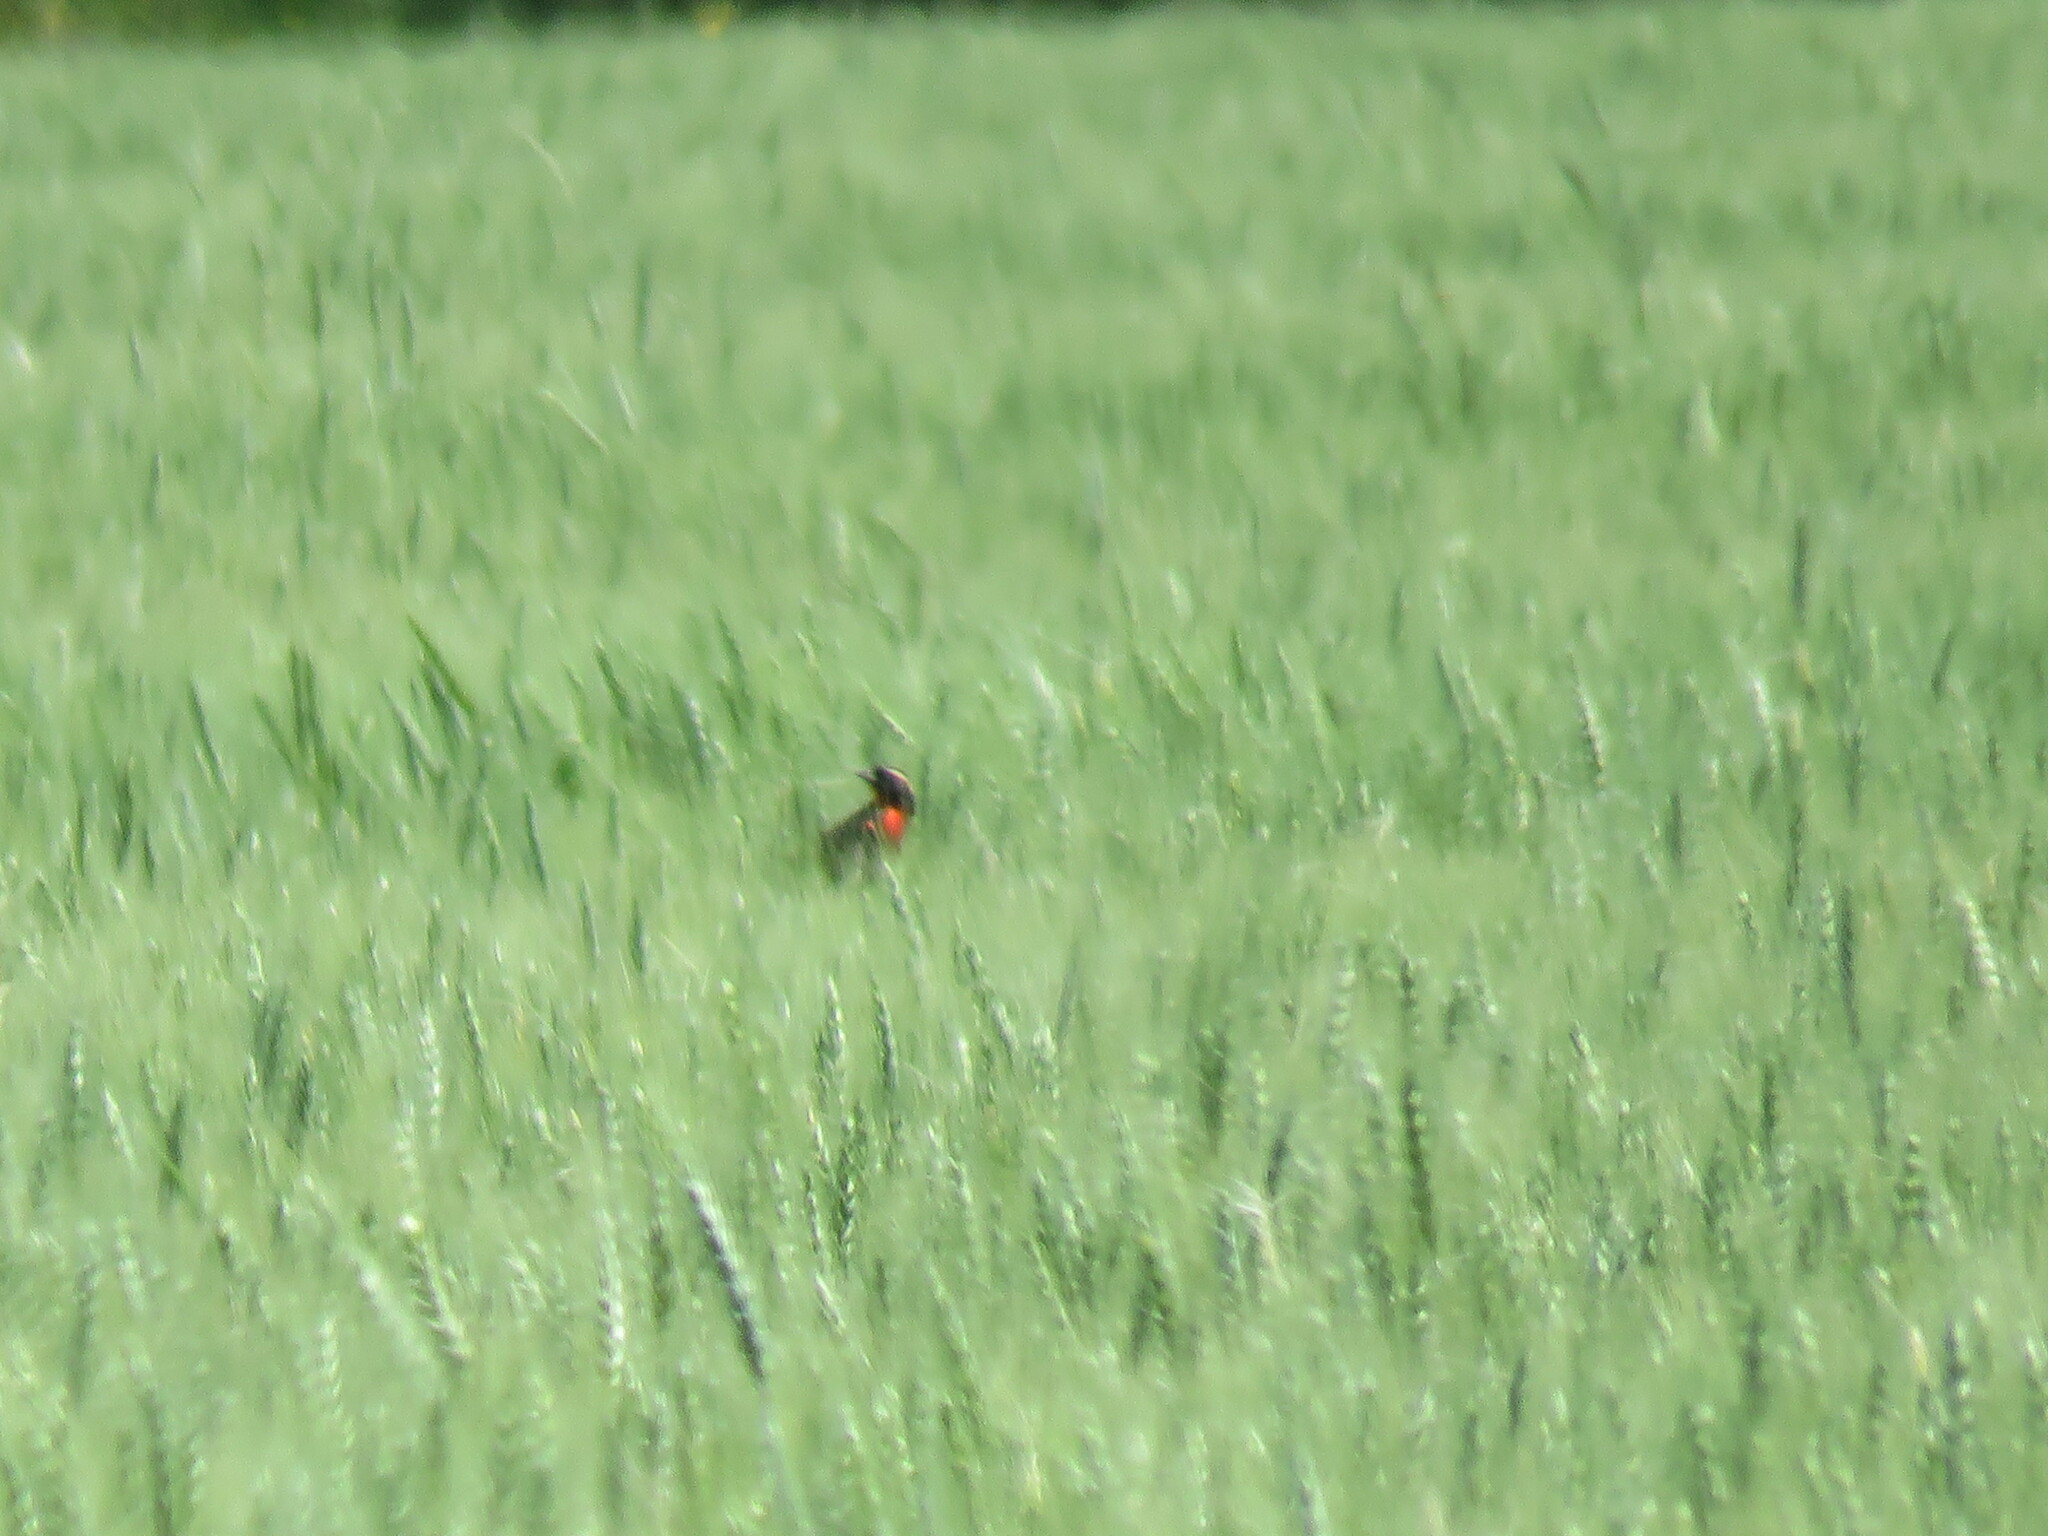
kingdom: Animalia
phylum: Chordata
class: Aves
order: Passeriformes
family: Icteridae
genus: Sturnella
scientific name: Sturnella superciliaris
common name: White-browed blackbird
